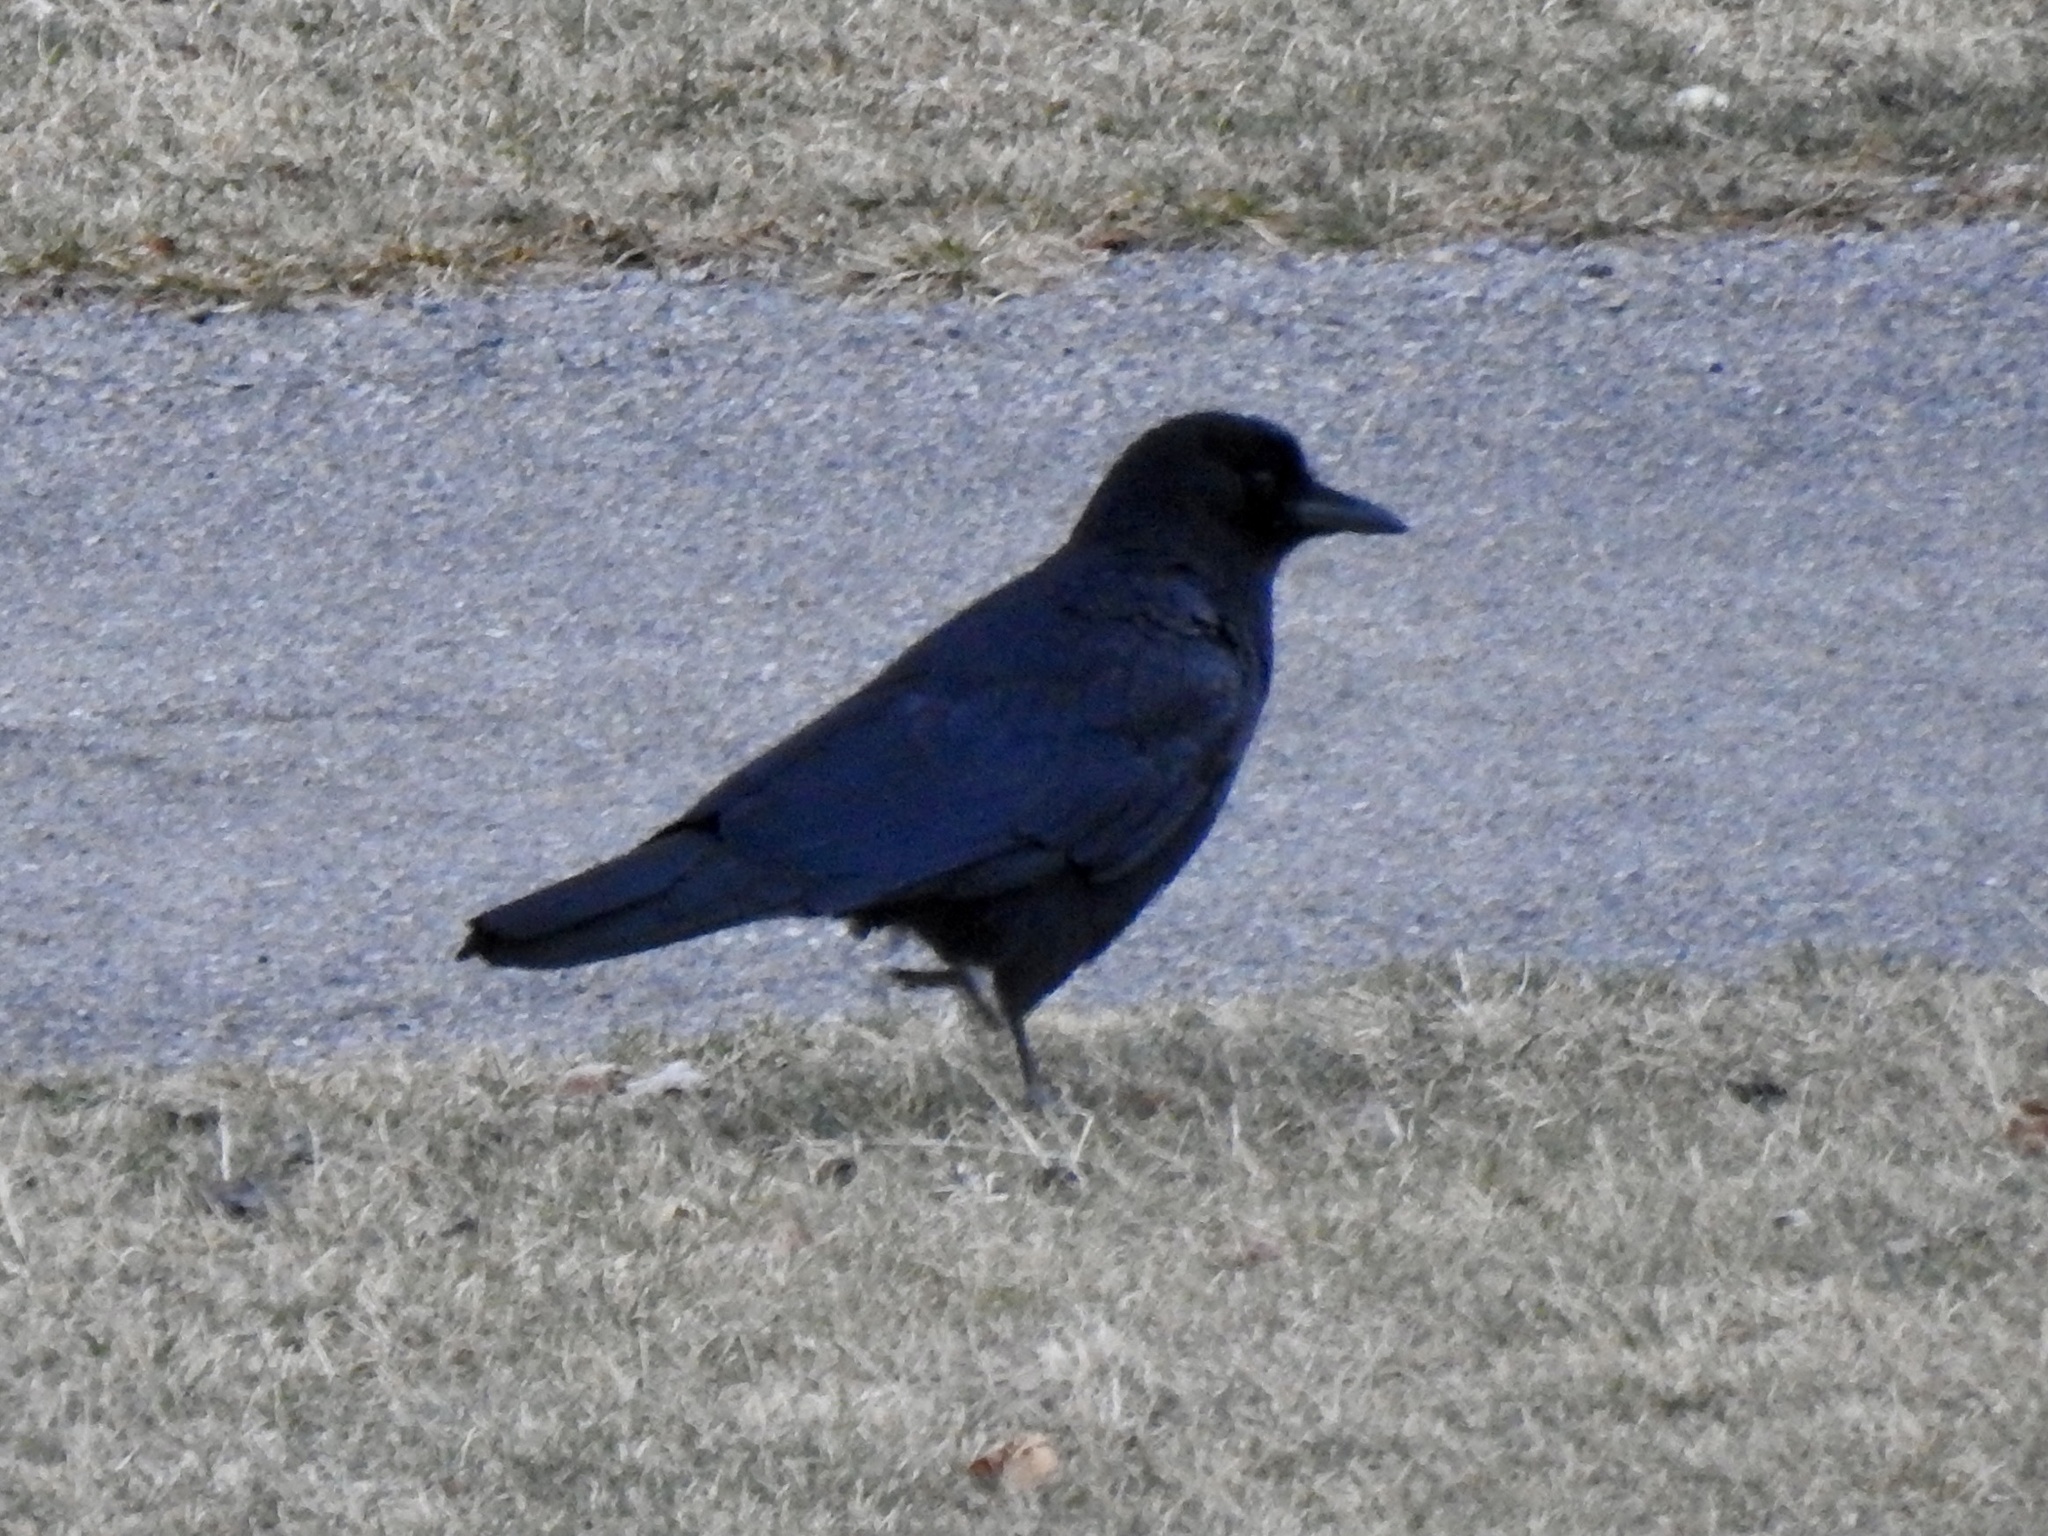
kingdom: Animalia
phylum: Chordata
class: Aves
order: Passeriformes
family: Corvidae
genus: Corvus
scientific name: Corvus brachyrhynchos
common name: American crow
